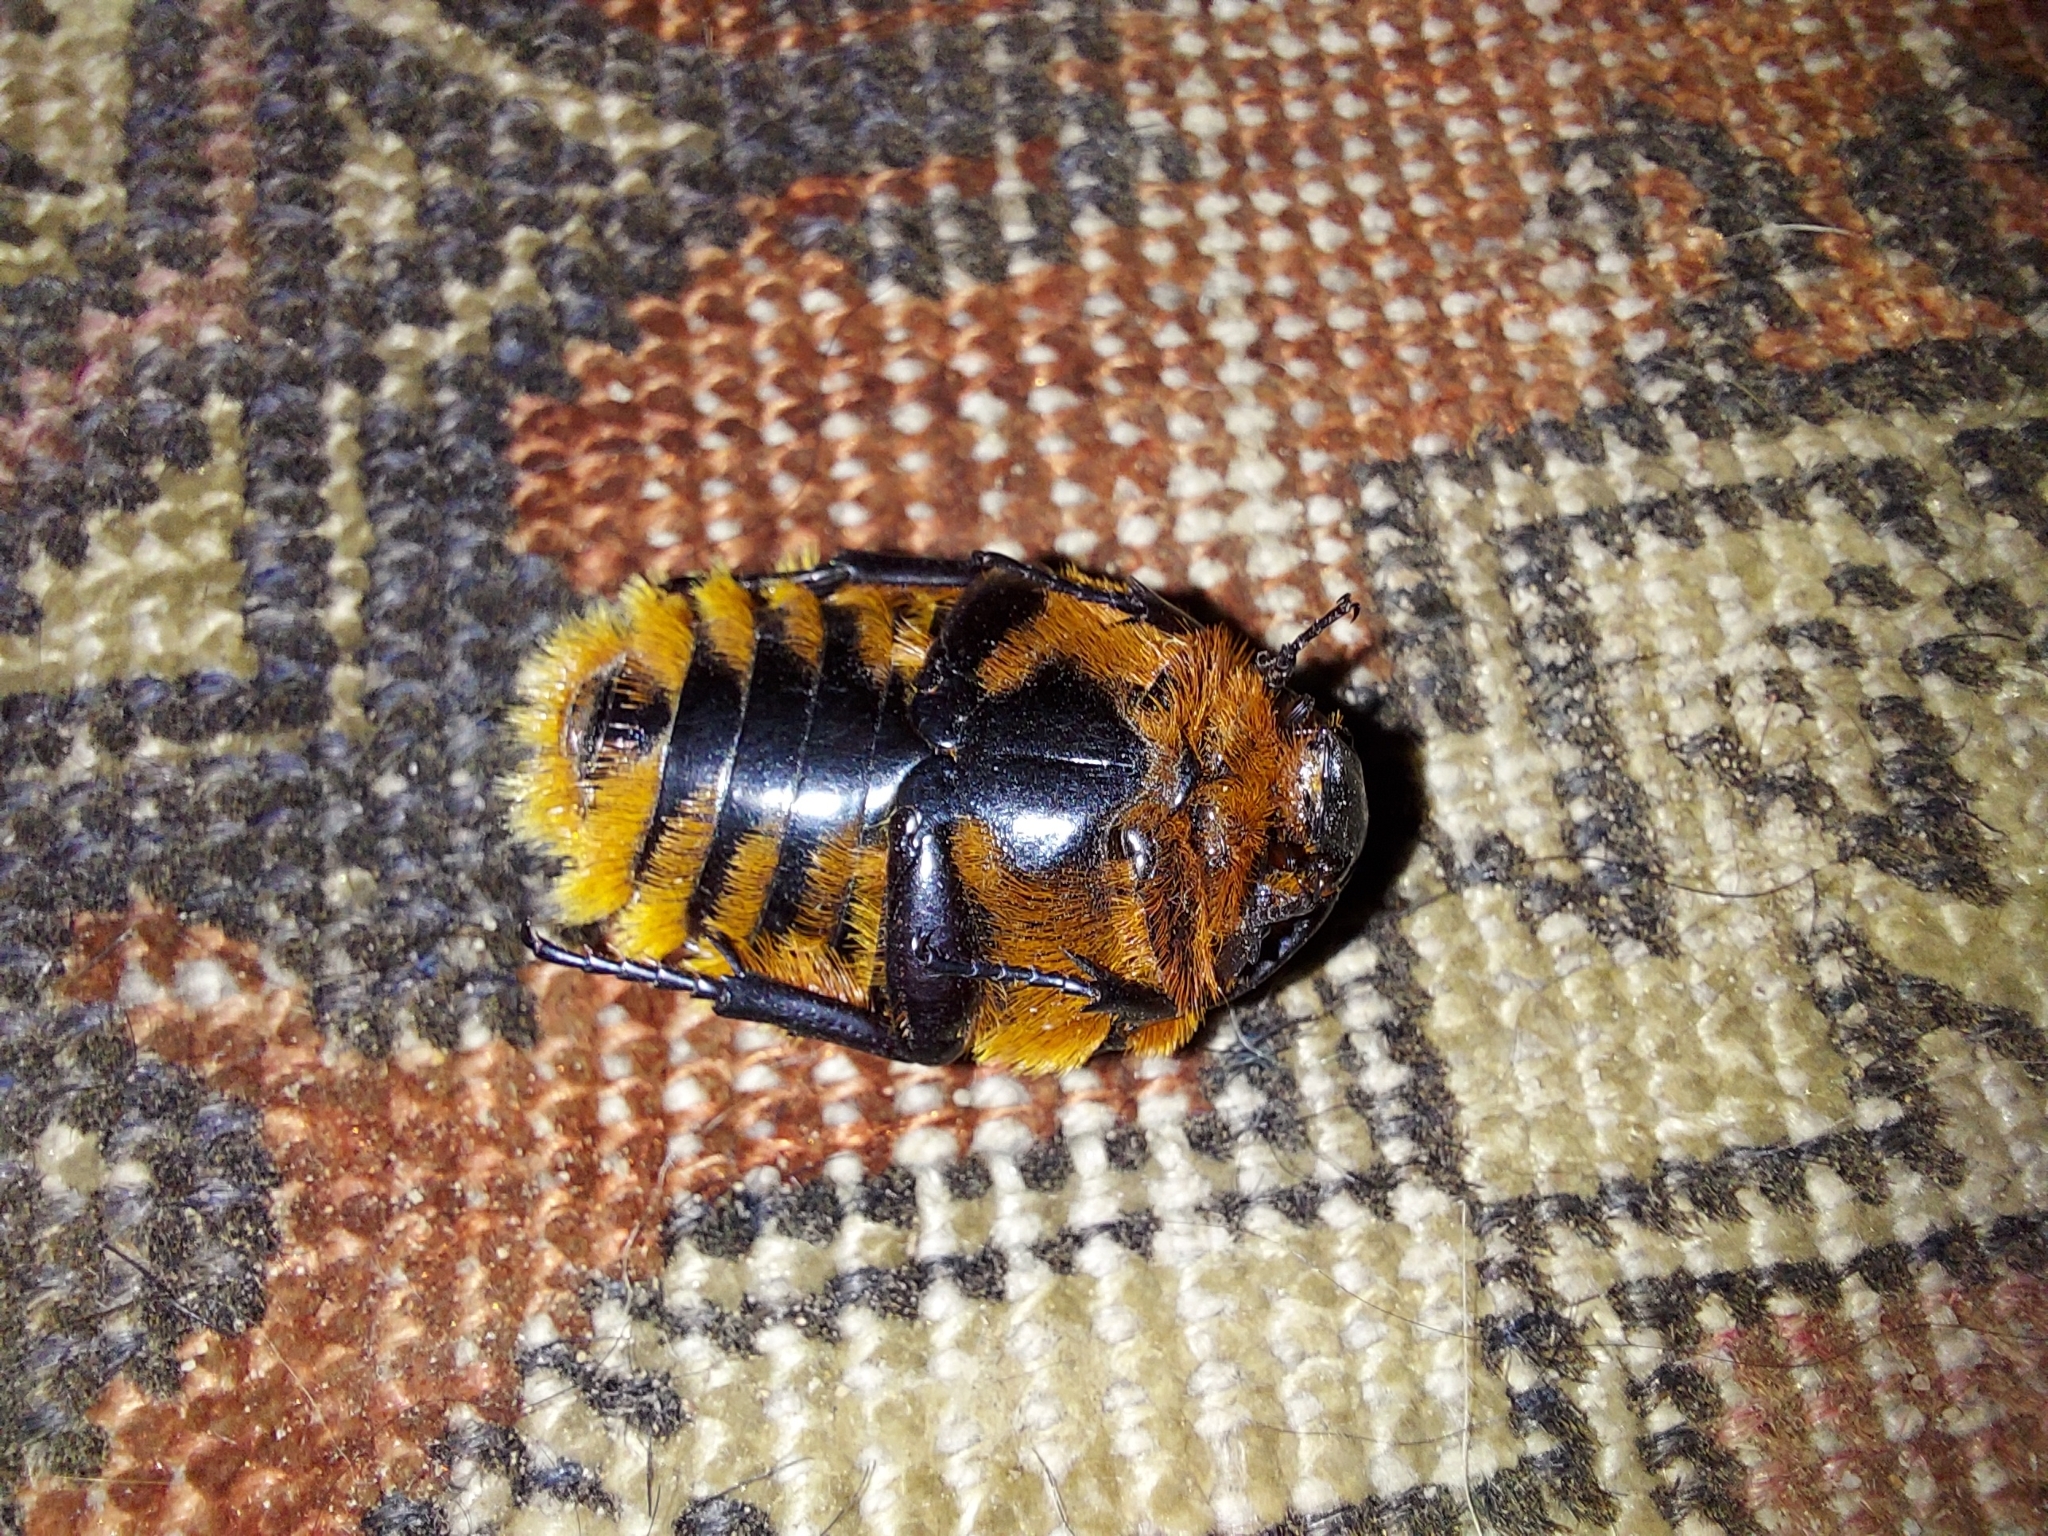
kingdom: Animalia
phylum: Arthropoda
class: Insecta
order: Coleoptera
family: Scarabaeidae
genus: Trichostetha
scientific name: Trichostetha fascicularis
